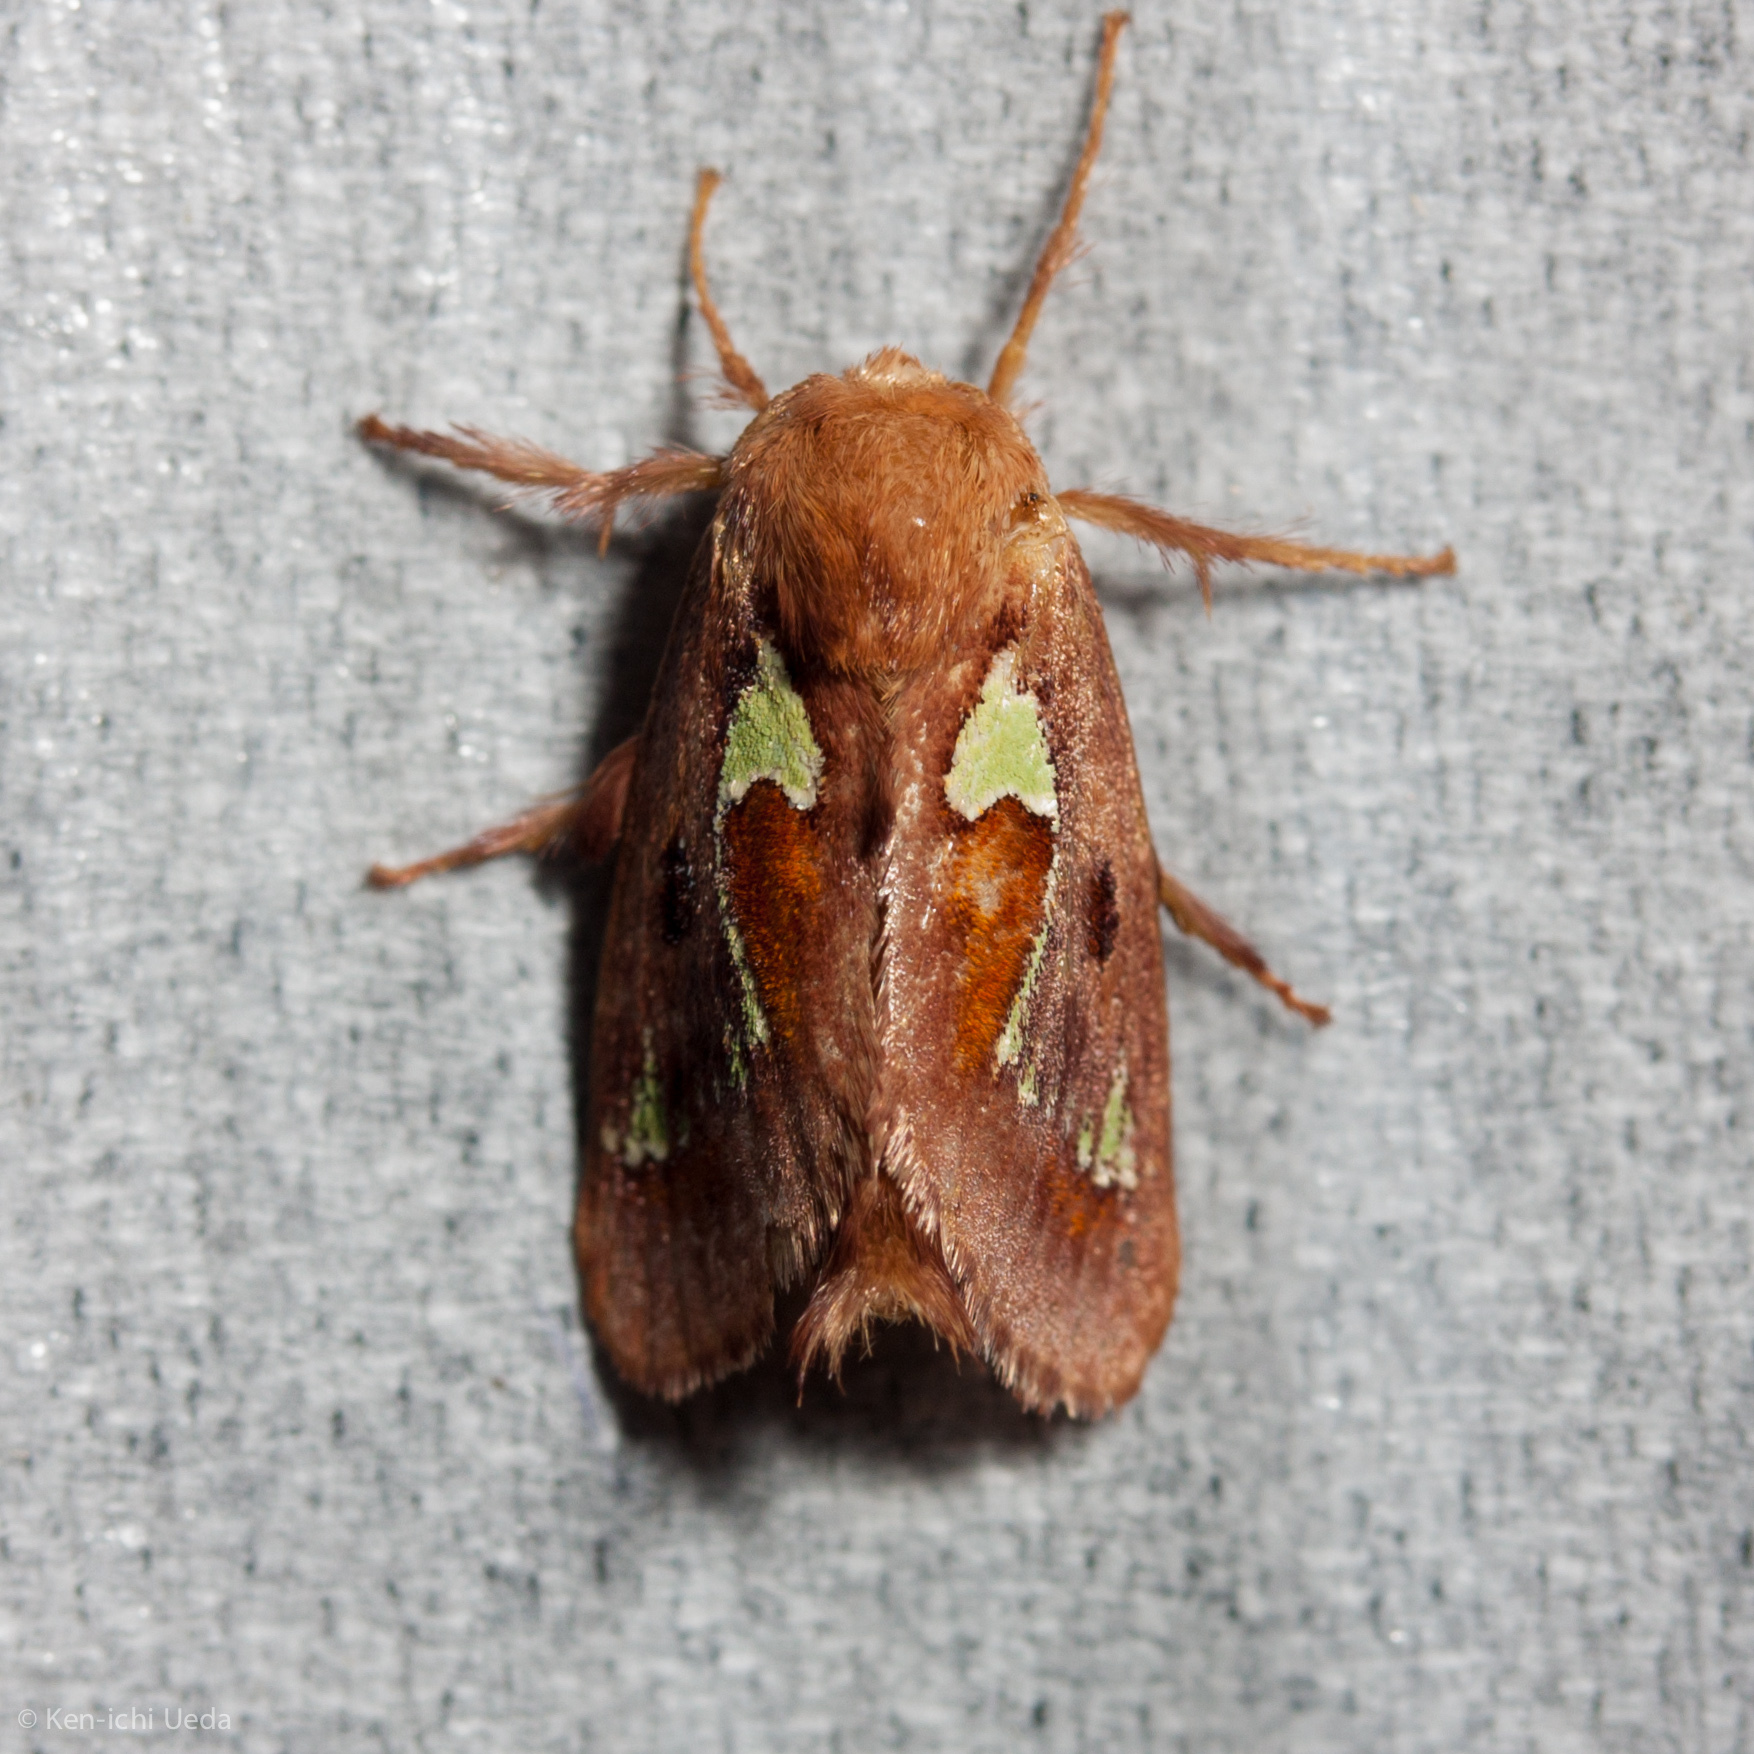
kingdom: Animalia
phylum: Arthropoda
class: Insecta
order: Lepidoptera
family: Limacodidae
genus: Euclea
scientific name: Euclea delphinii
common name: Spiny oak-slug moth
